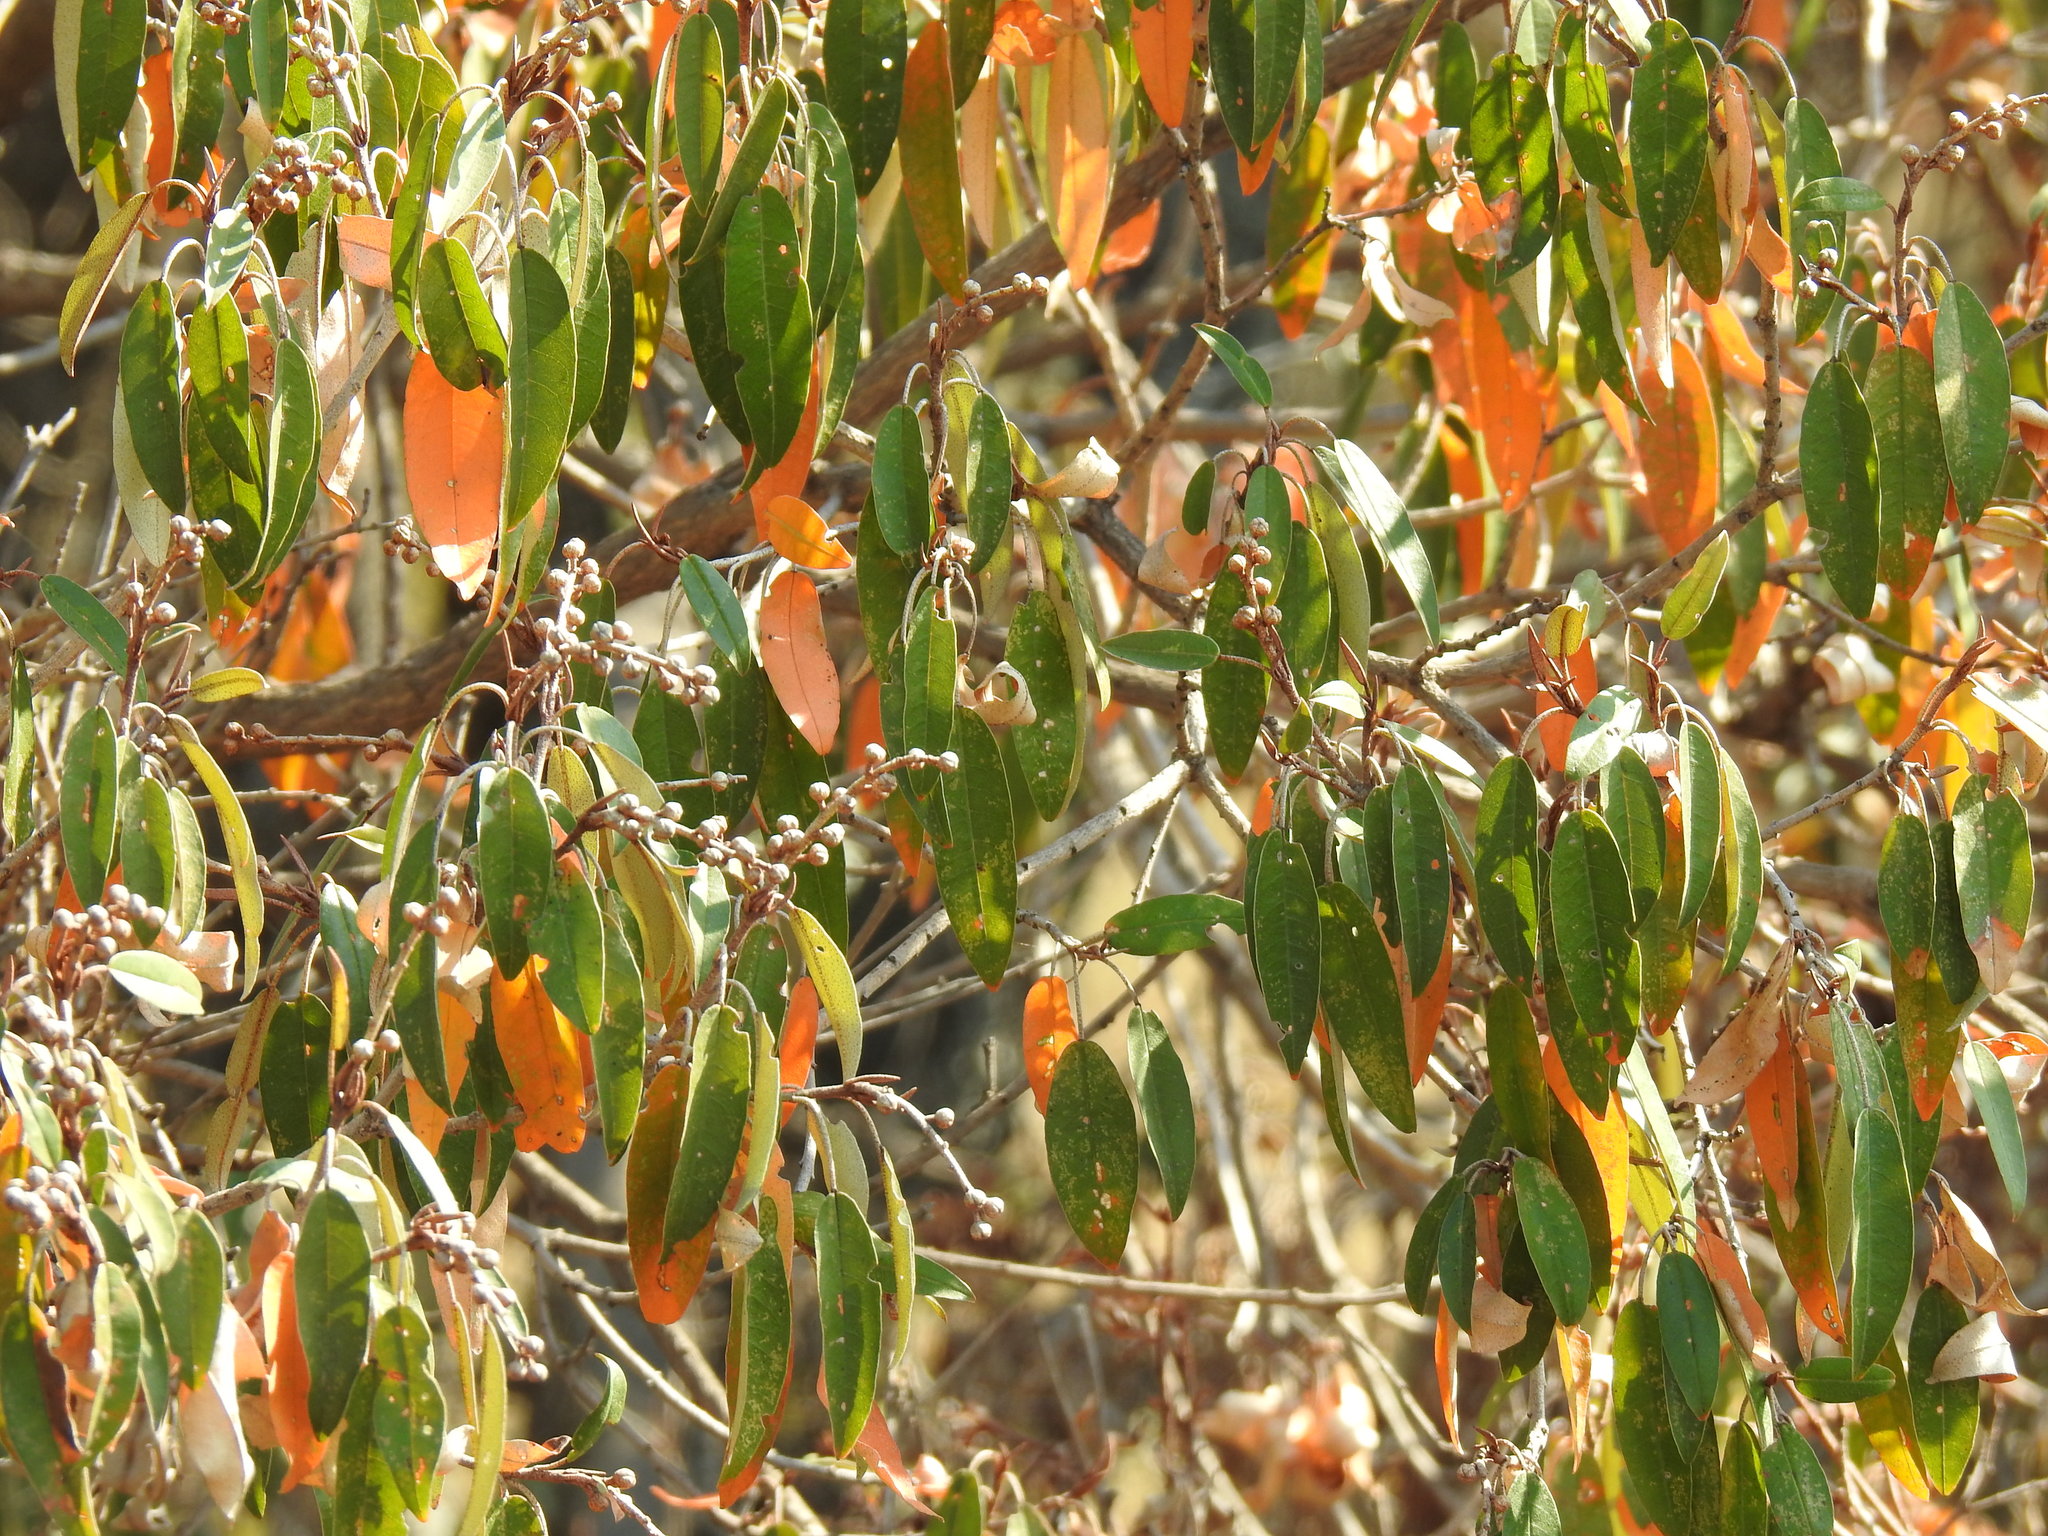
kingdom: Plantae
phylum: Tracheophyta
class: Magnoliopsida
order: Malpighiales
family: Euphorbiaceae
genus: Croton
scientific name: Croton gratissimus
